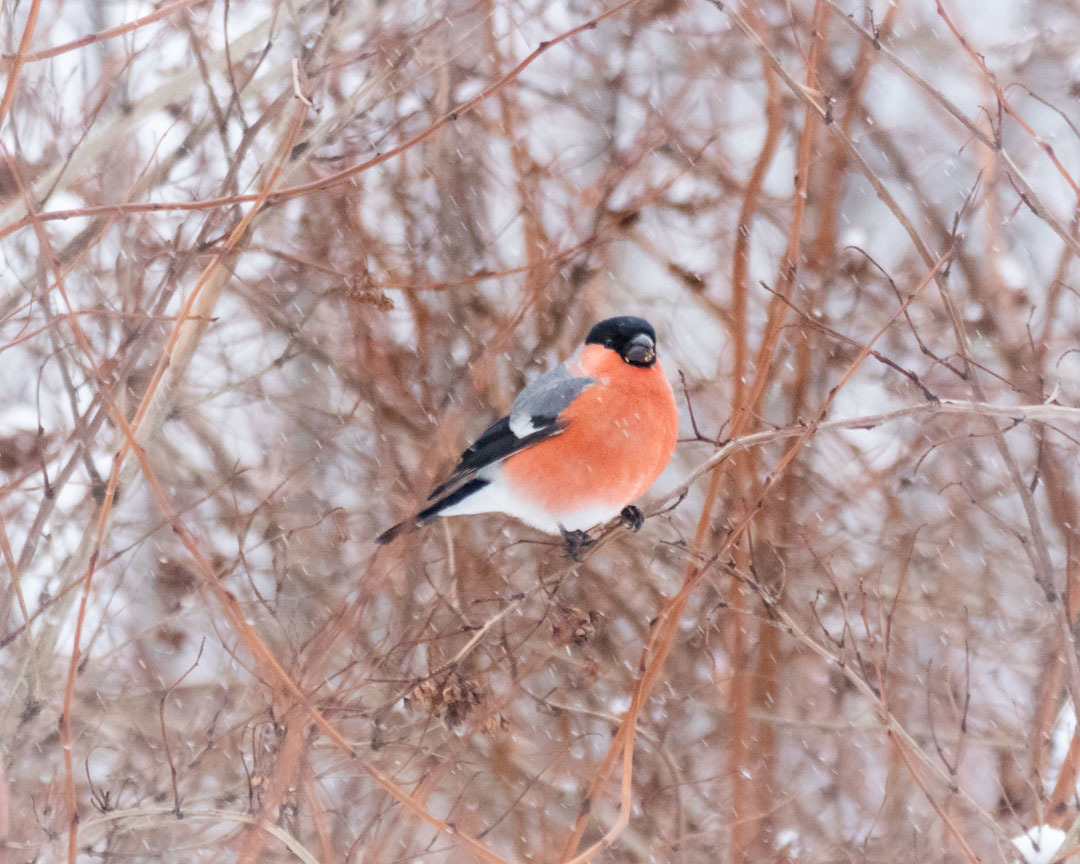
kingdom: Animalia
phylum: Chordata
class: Aves
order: Passeriformes
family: Fringillidae
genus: Pyrrhula
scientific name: Pyrrhula pyrrhula
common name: Eurasian bullfinch
